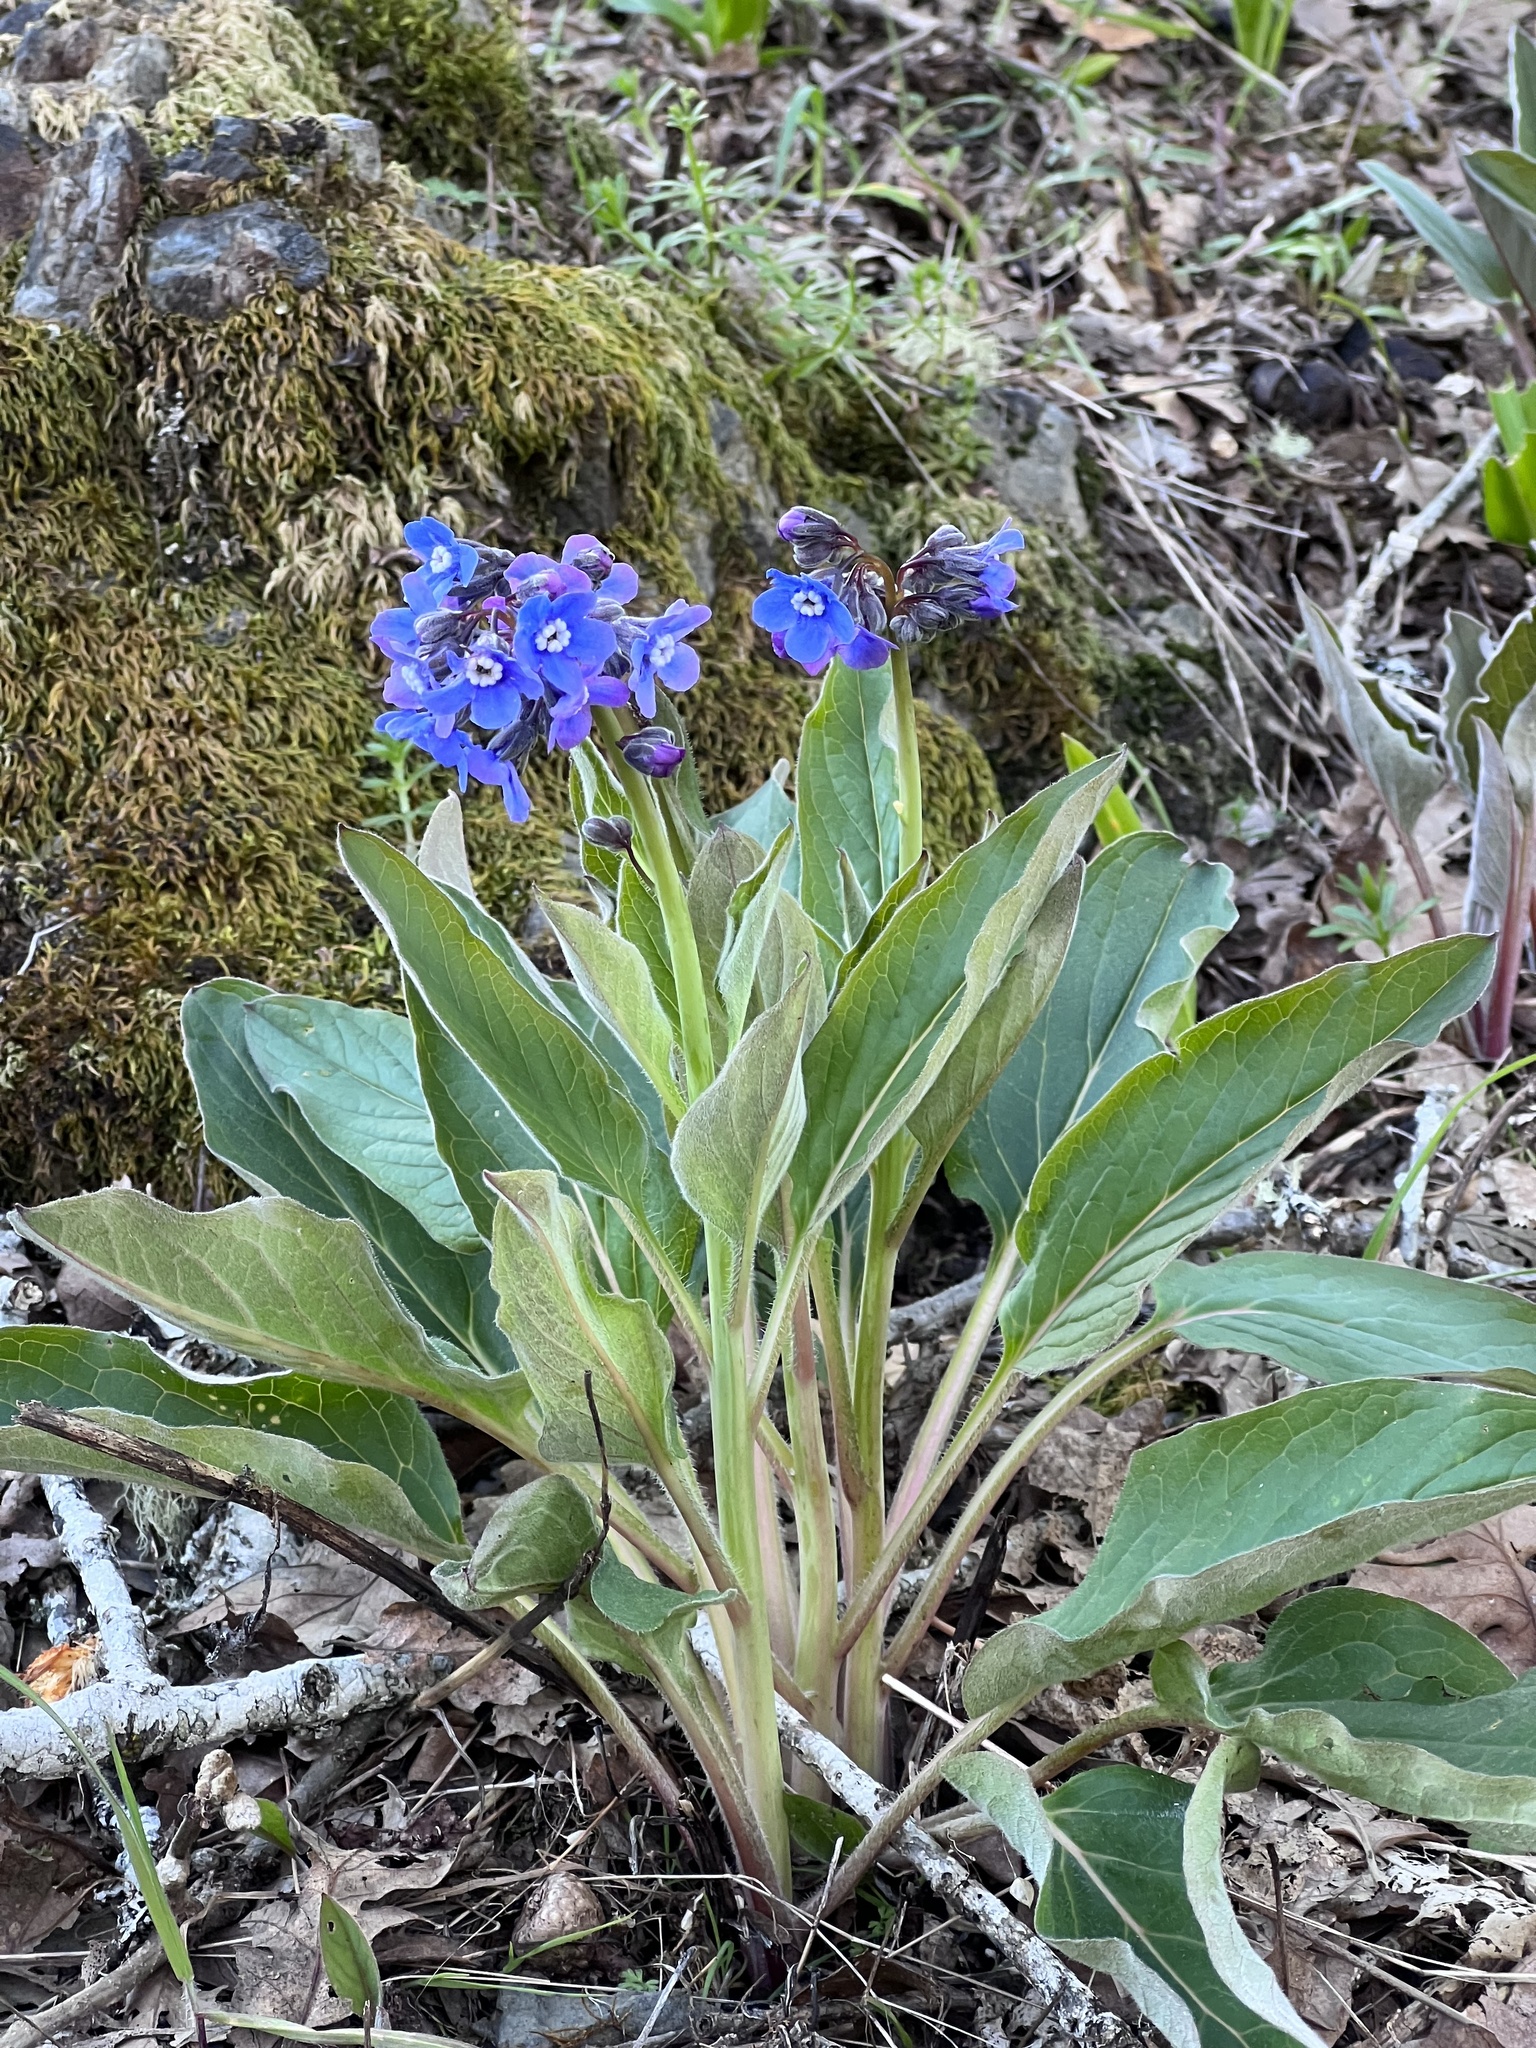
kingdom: Plantae
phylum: Tracheophyta
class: Magnoliopsida
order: Boraginales
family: Boraginaceae
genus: Adelinia
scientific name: Adelinia grande
